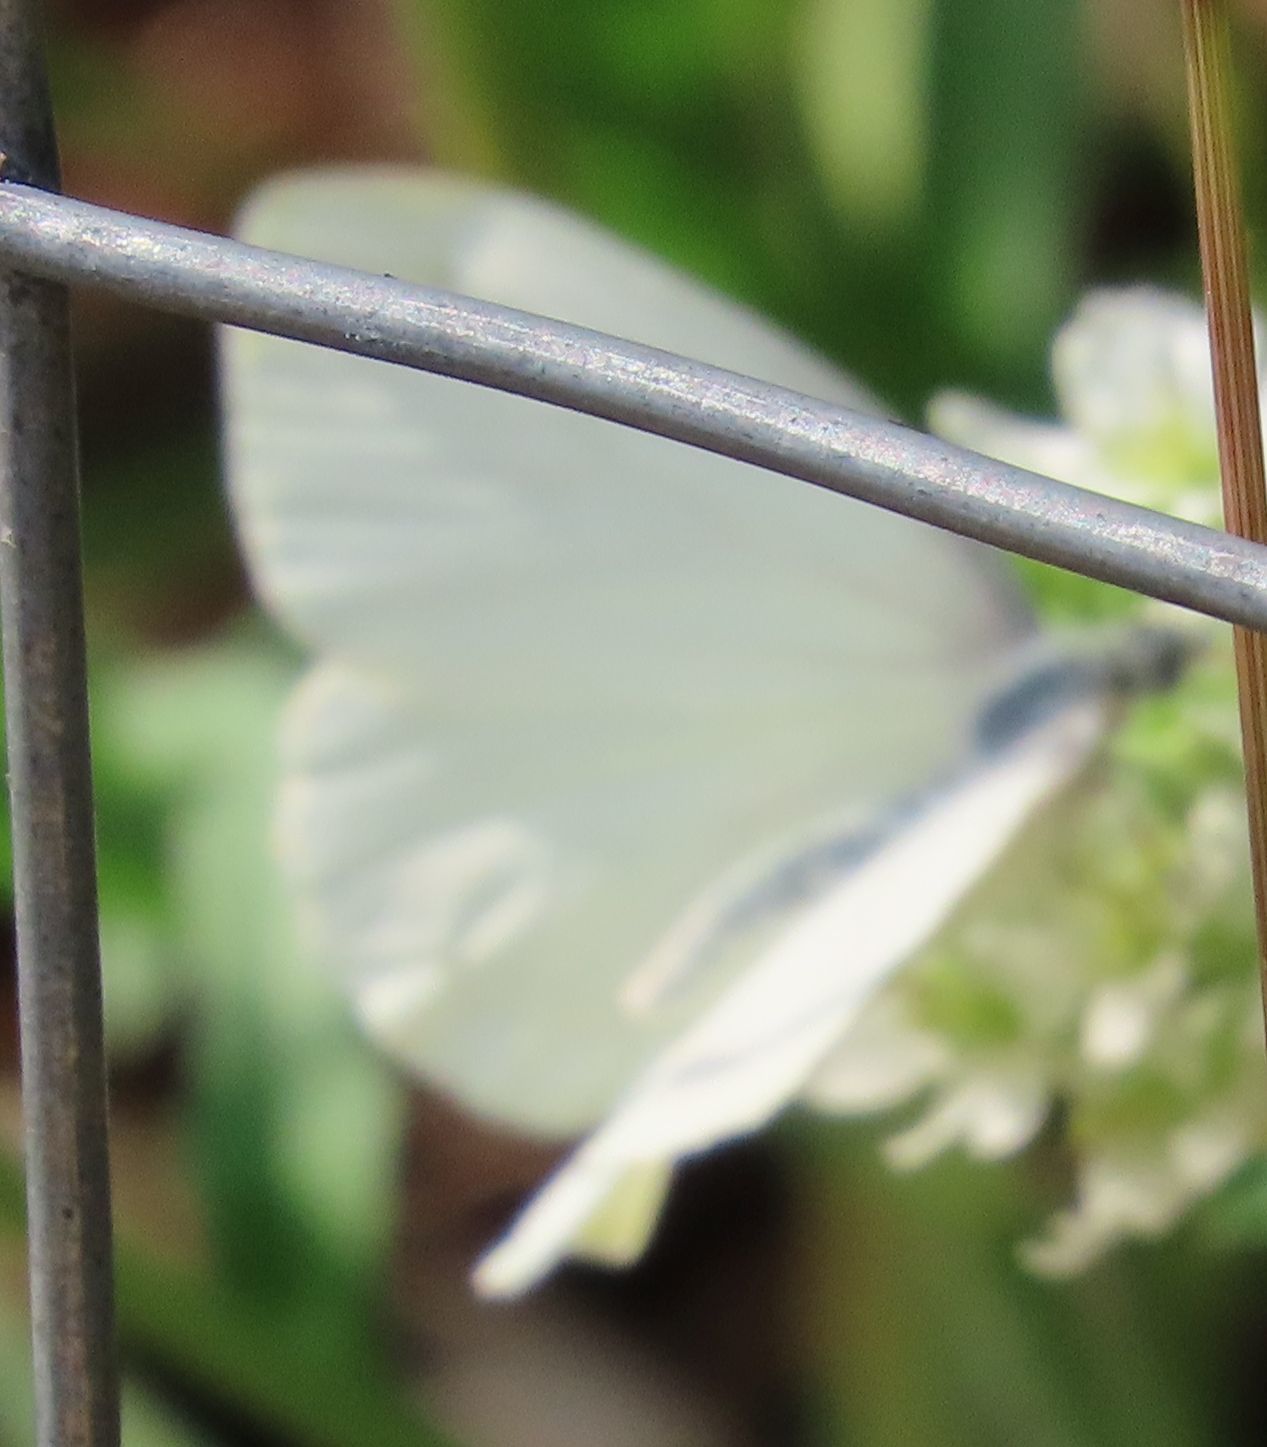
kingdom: Animalia
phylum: Arthropoda
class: Insecta
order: Lepidoptera
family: Pieridae
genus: Pieris
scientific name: Pieris oleracea
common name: Mustard white
